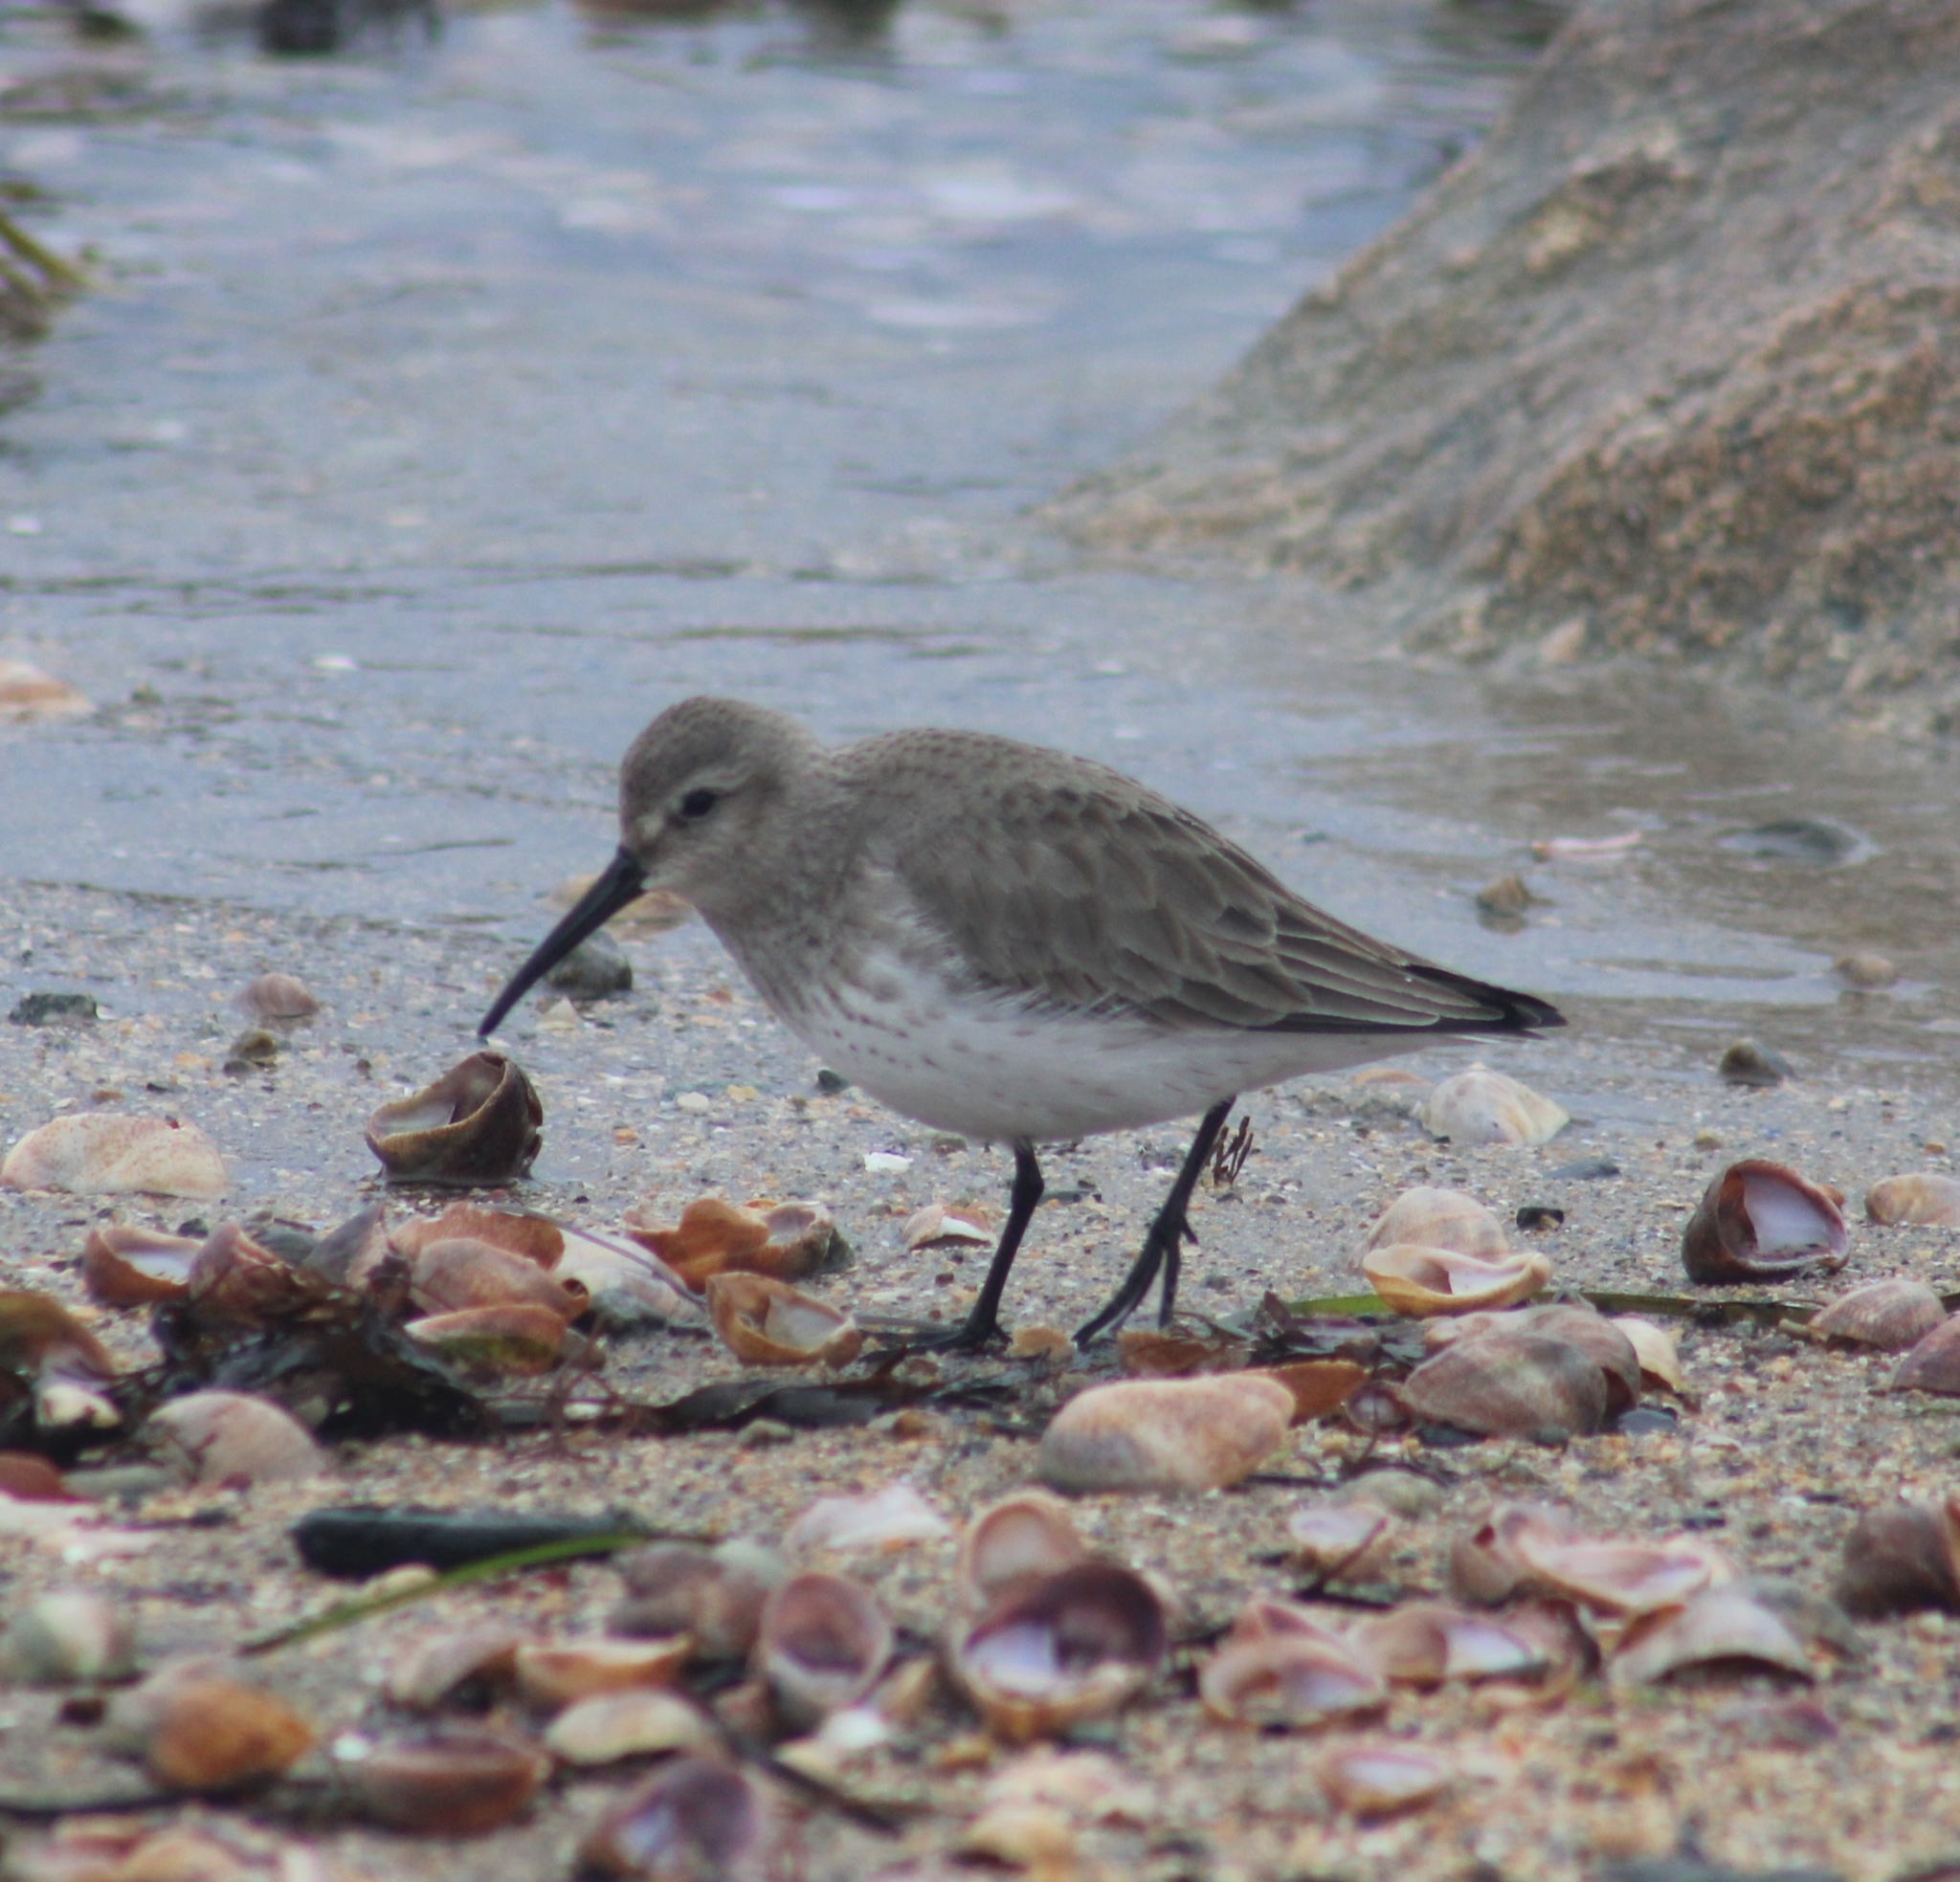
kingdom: Animalia
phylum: Chordata
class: Aves
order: Charadriiformes
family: Scolopacidae
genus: Calidris
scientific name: Calidris alpina
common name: Dunlin
